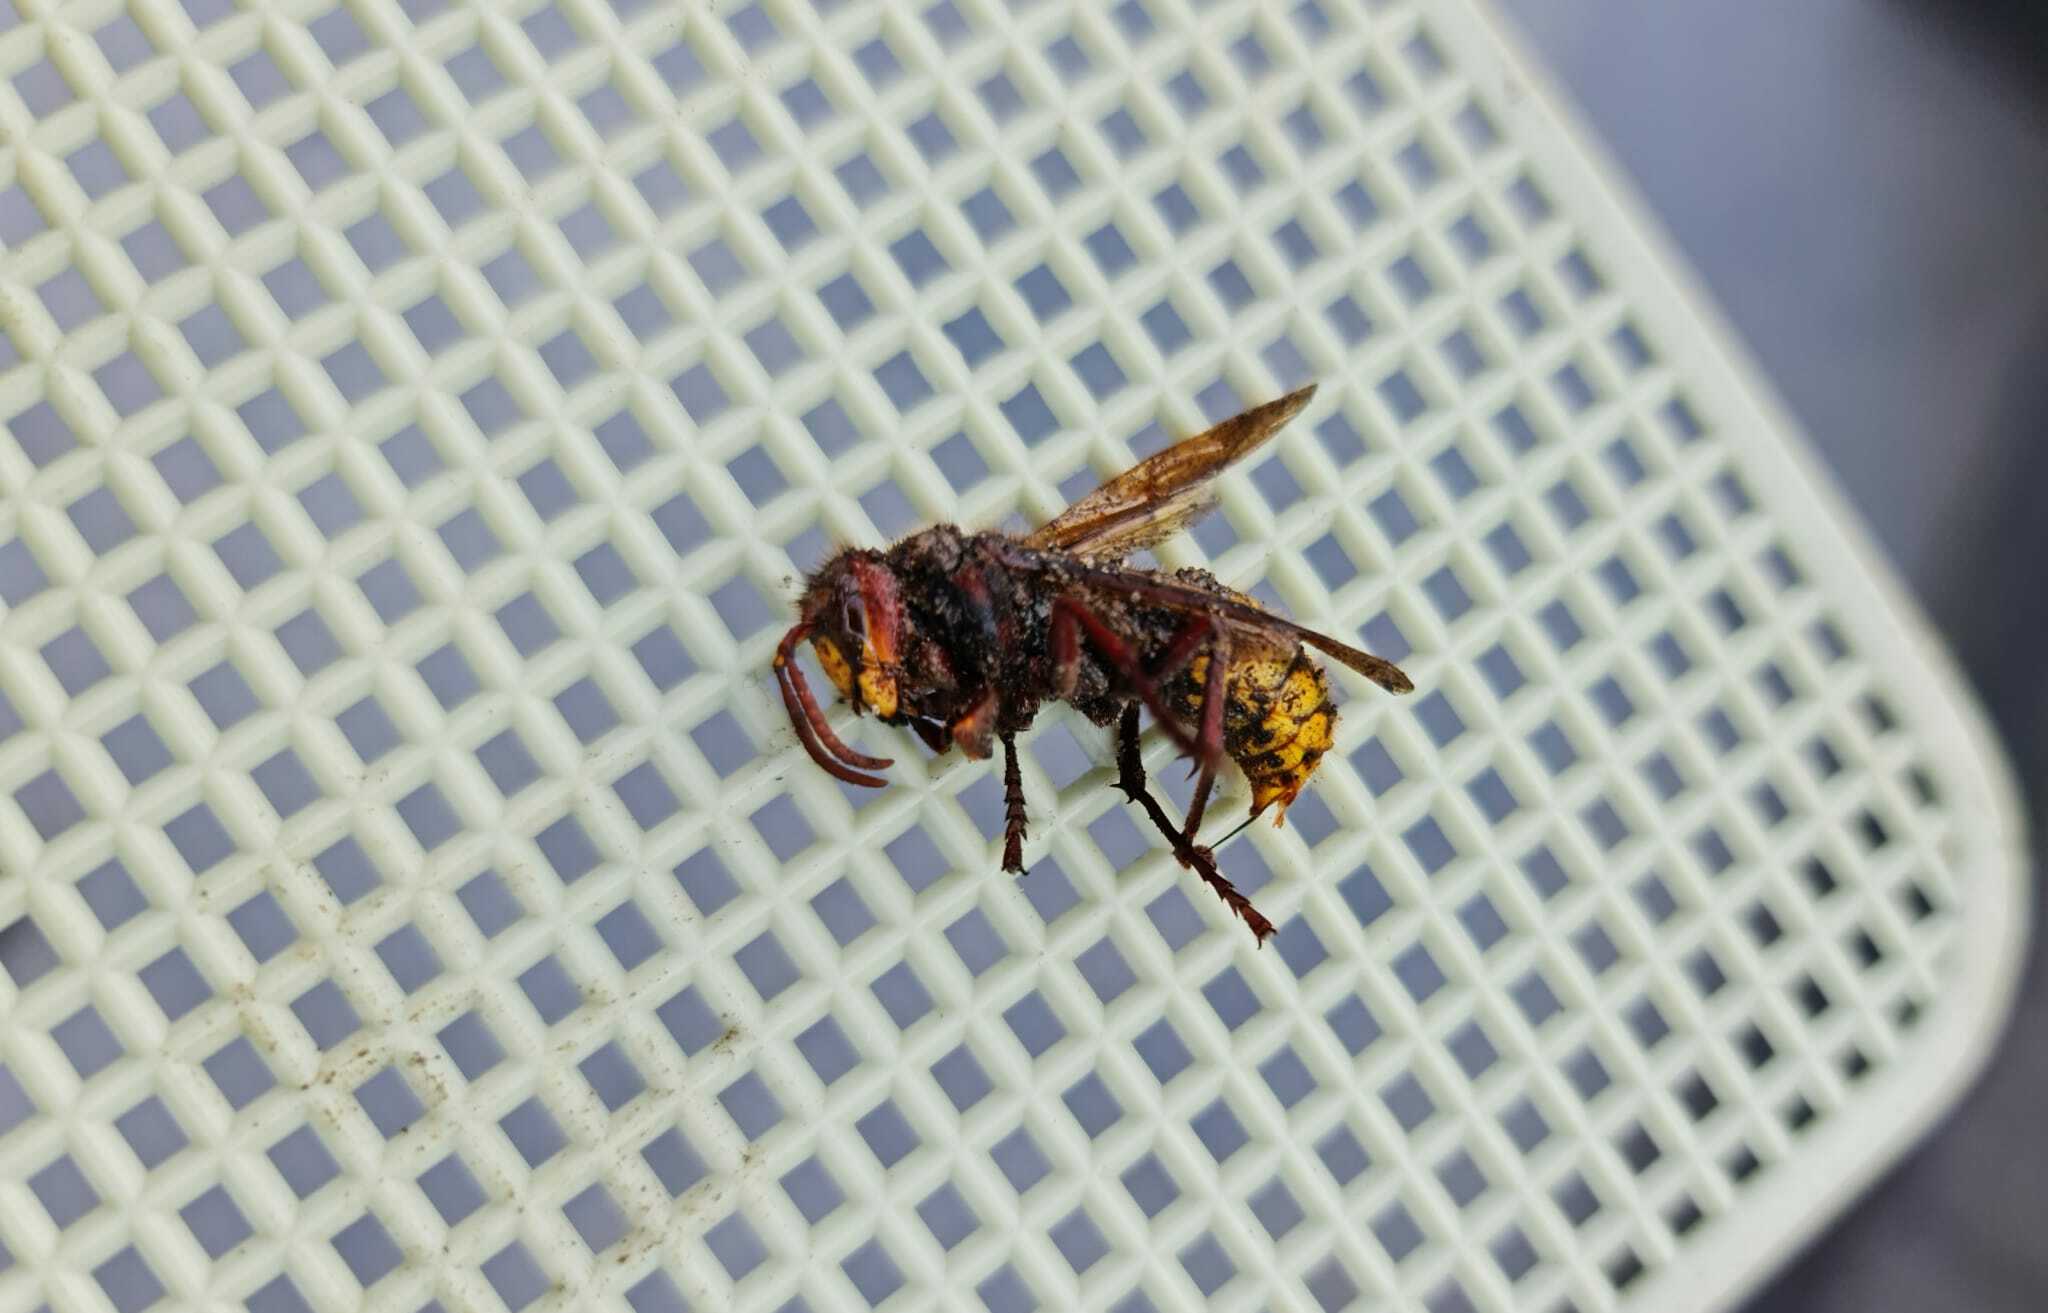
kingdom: Animalia
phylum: Arthropoda
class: Insecta
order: Hymenoptera
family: Vespidae
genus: Vespa
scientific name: Vespa crabro
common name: Hornet
